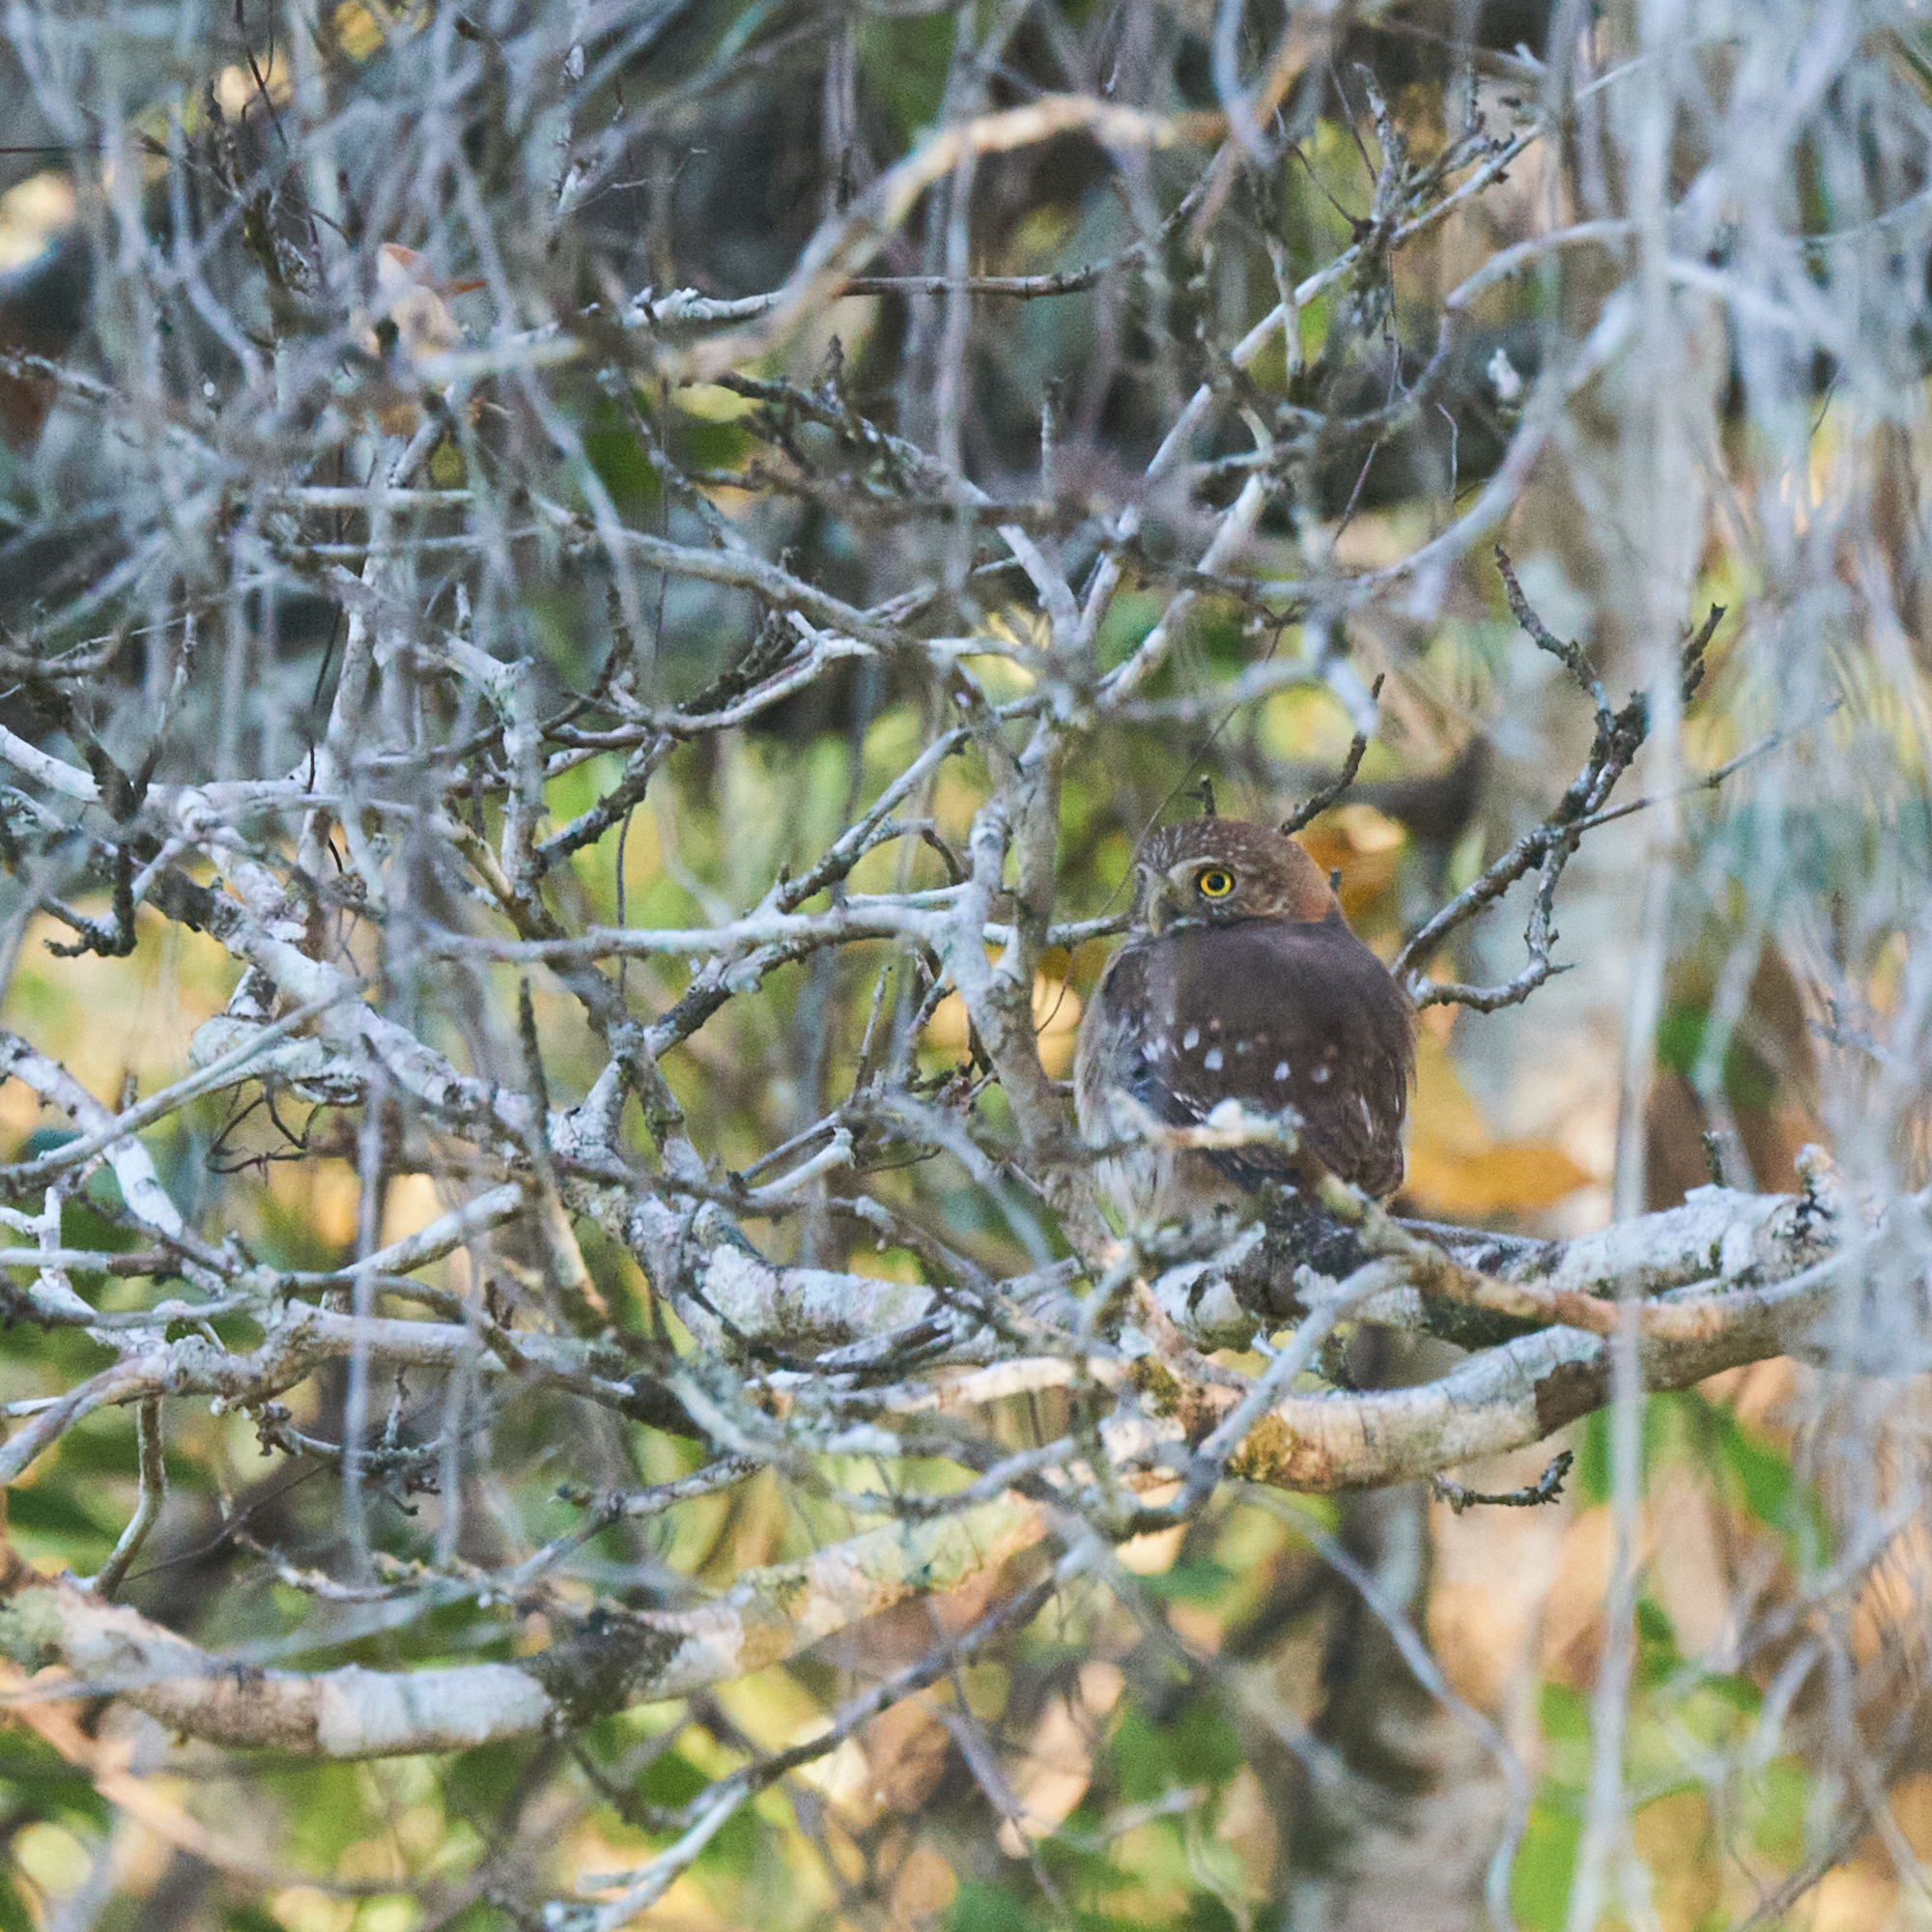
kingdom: Animalia
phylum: Chordata
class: Aves
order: Strigiformes
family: Strigidae
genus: Glaucidium
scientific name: Glaucidium brasilianum
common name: Ferruginous pygmy-owl
